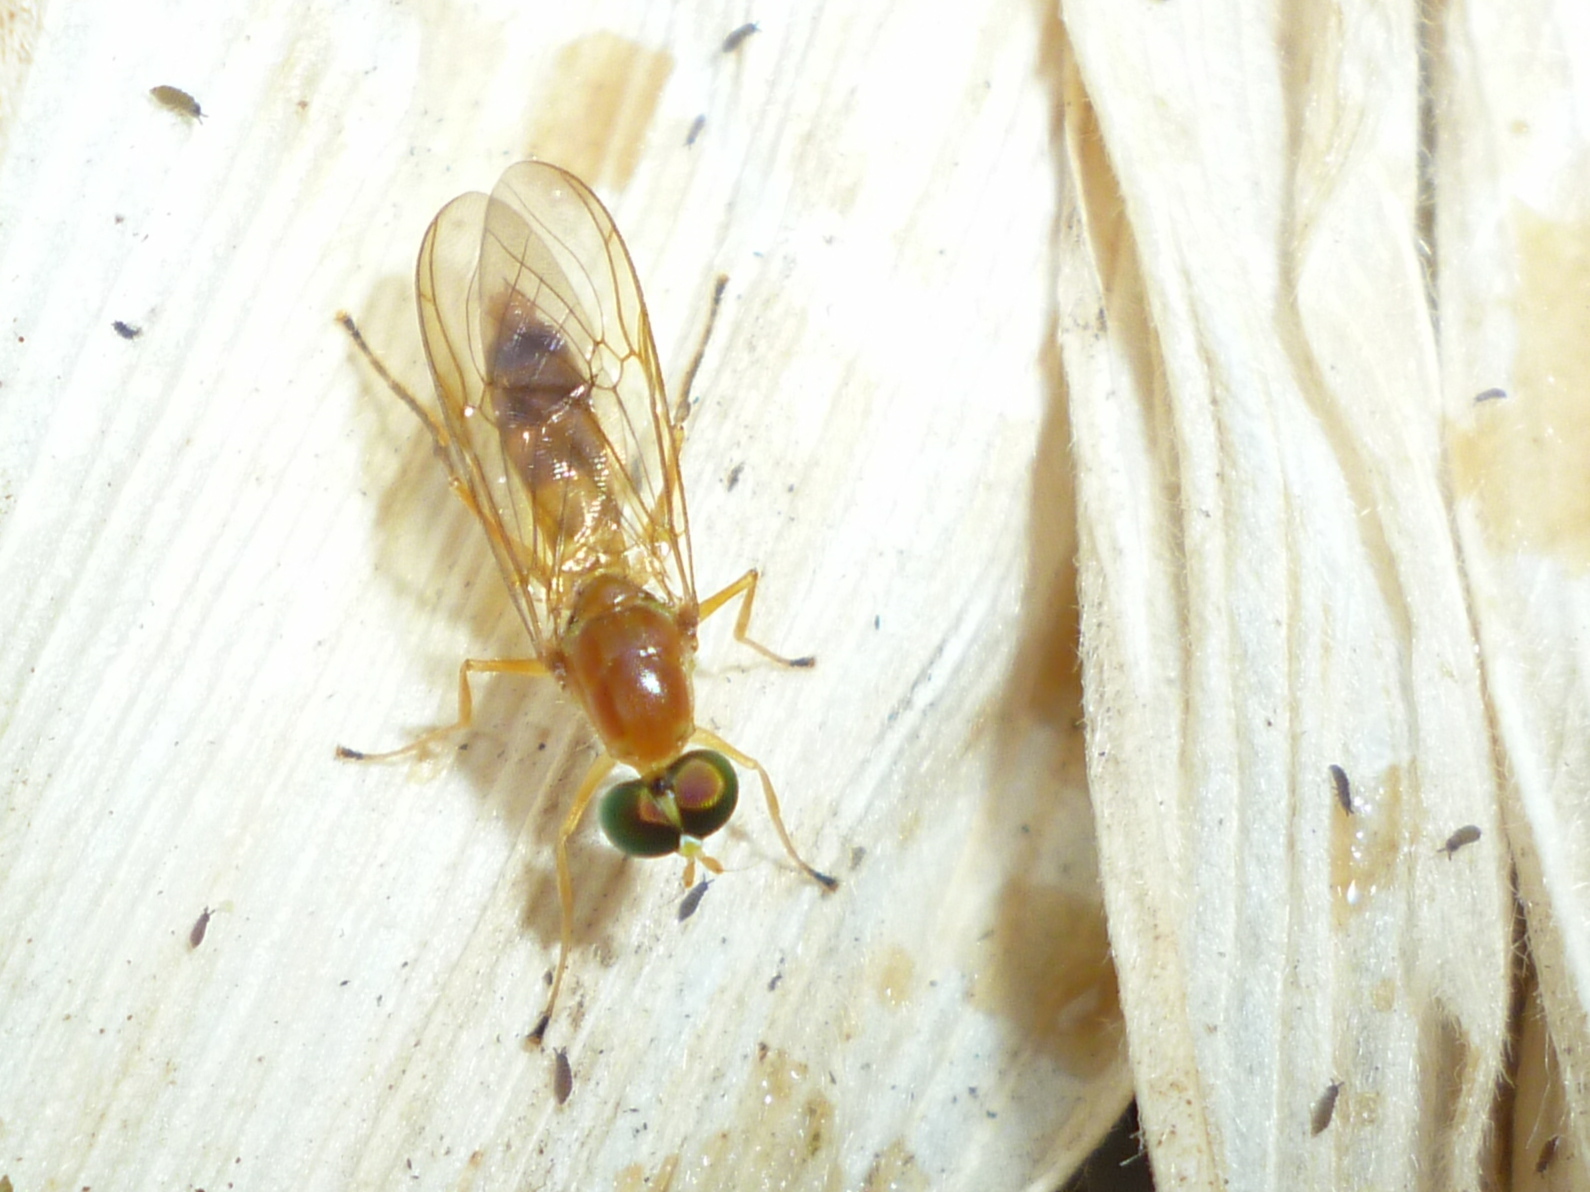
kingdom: Animalia
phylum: Arthropoda
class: Insecta
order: Diptera
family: Stratiomyidae
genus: Ptecticus
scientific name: Ptecticus trivittatus
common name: Compost fly
